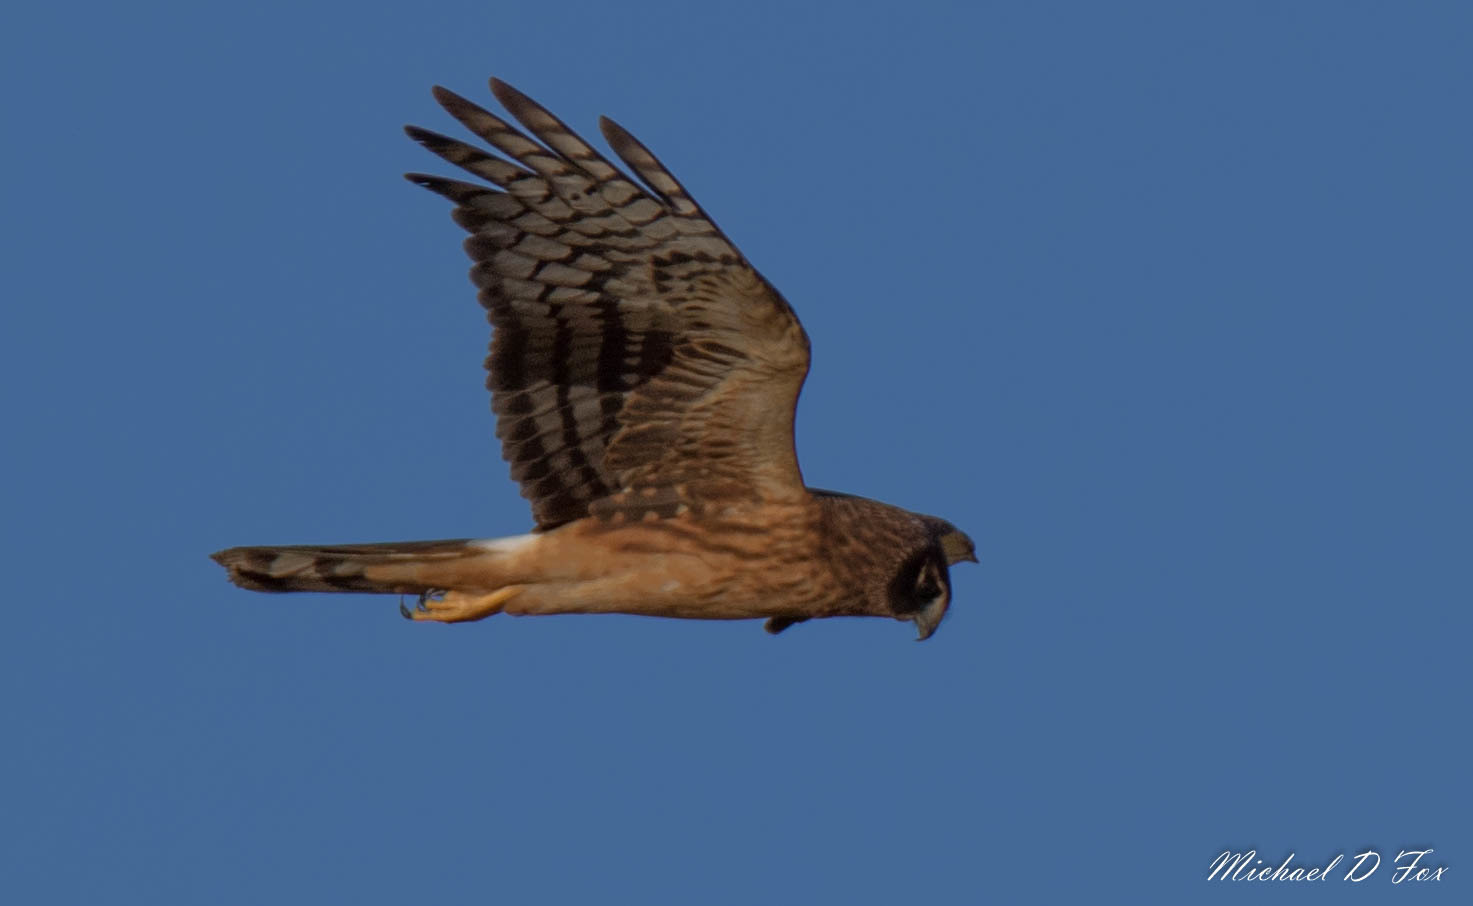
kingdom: Animalia
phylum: Chordata
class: Aves
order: Accipitriformes
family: Accipitridae
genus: Circus
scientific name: Circus cyaneus
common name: Hen harrier
